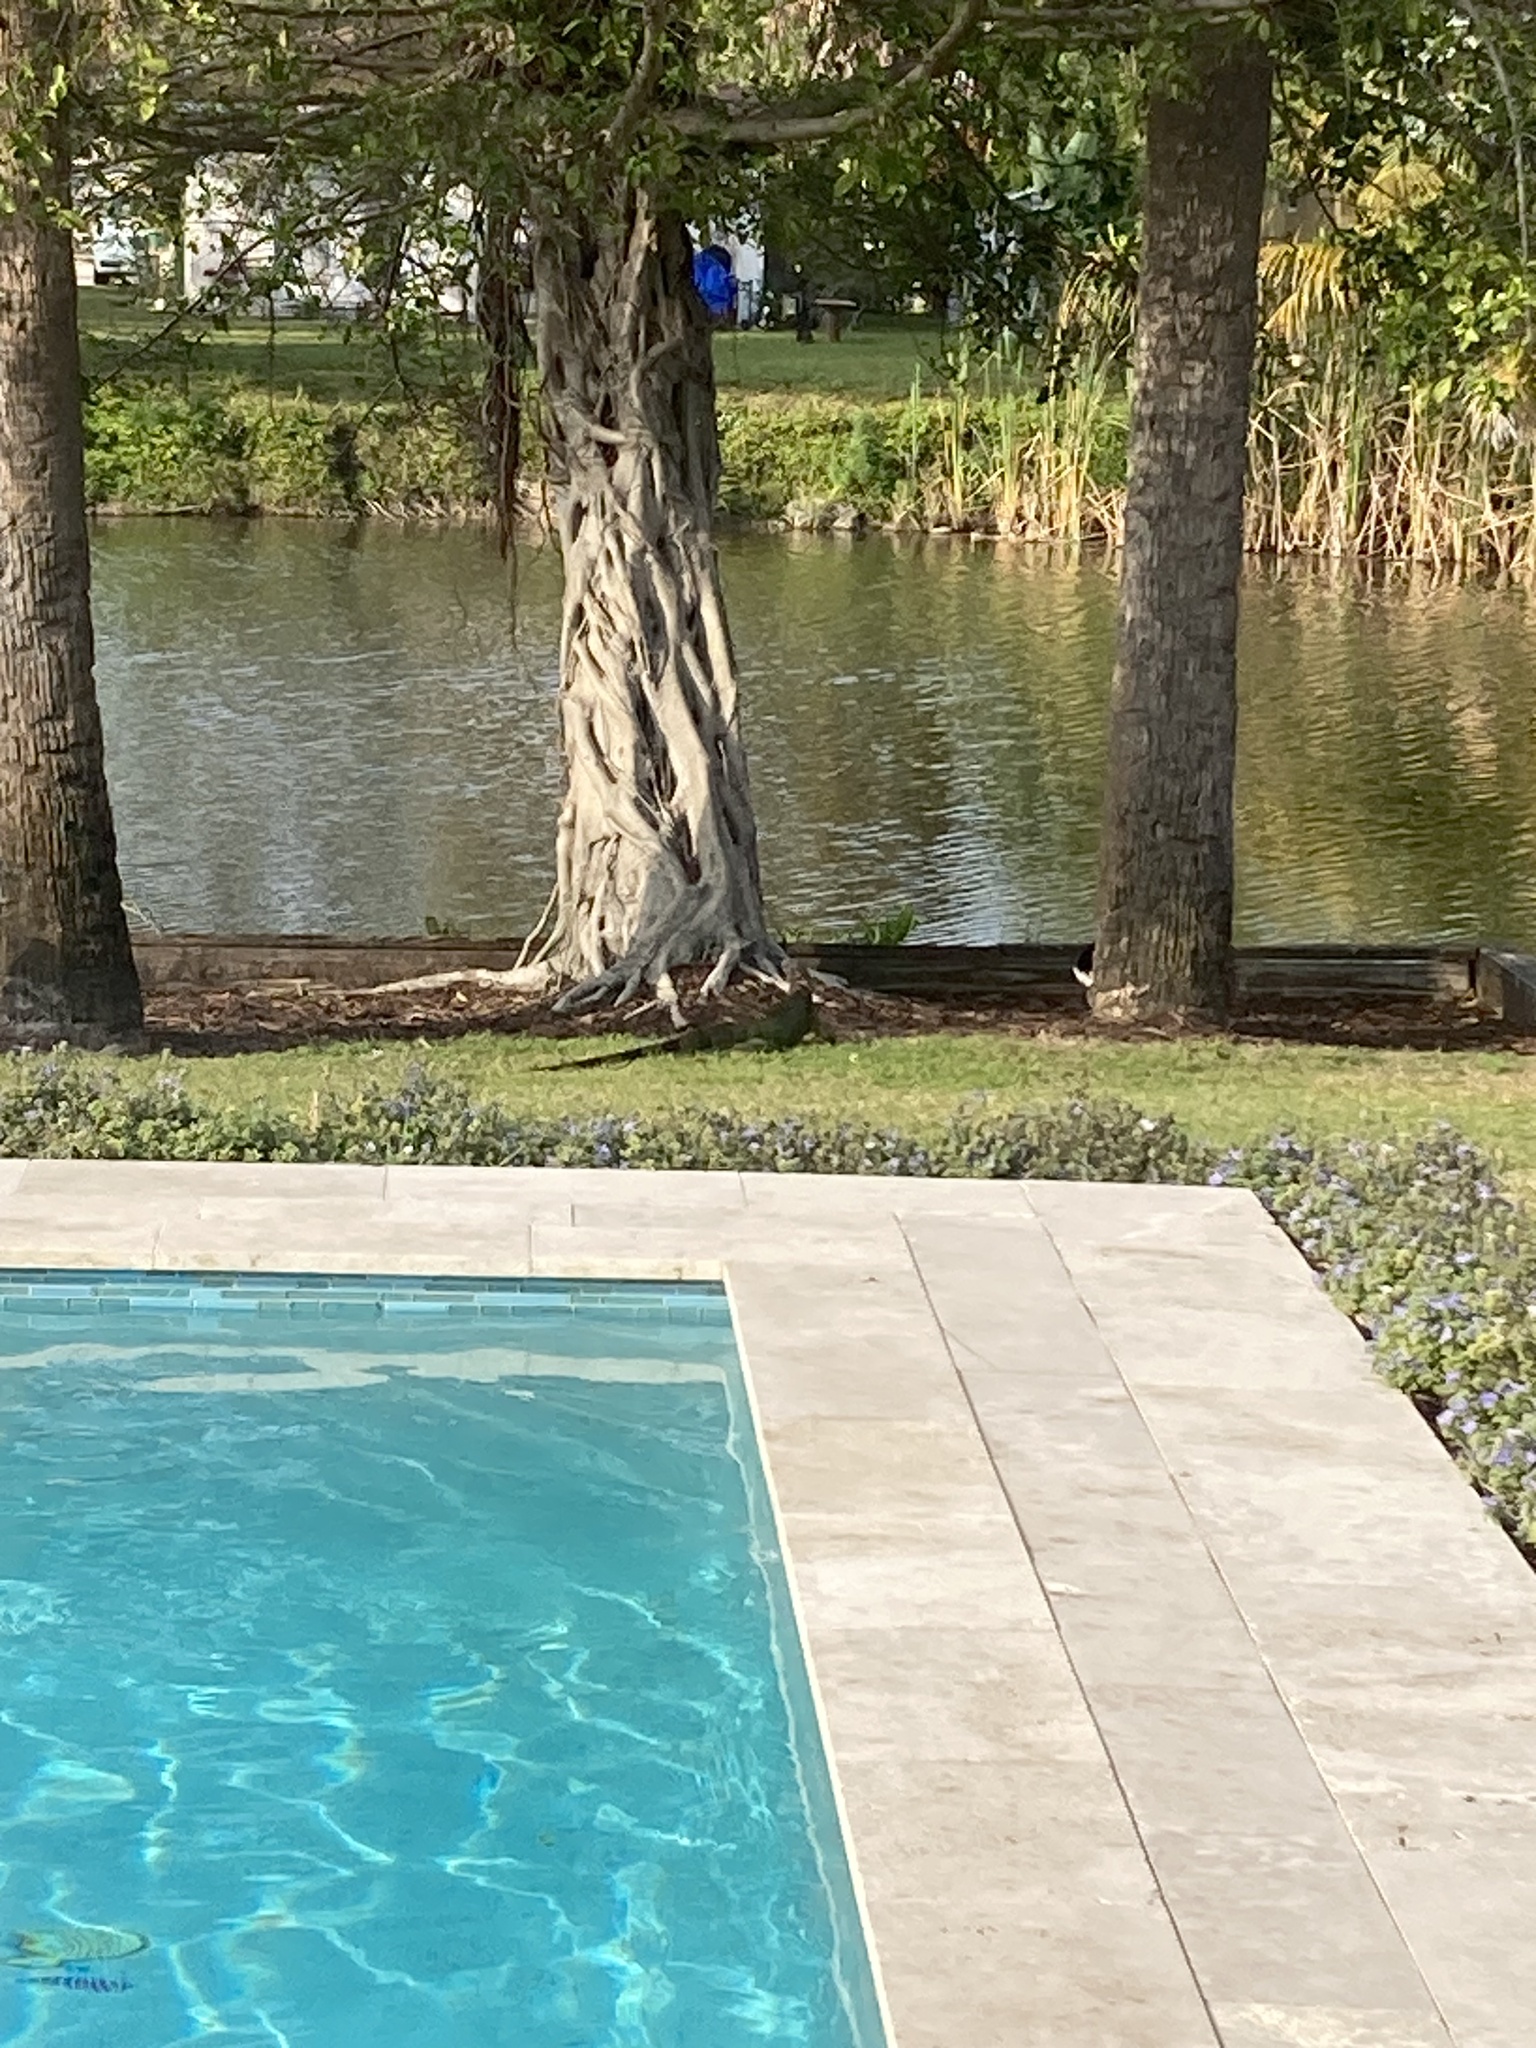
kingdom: Animalia
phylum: Chordata
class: Squamata
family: Iguanidae
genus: Iguana
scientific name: Iguana iguana
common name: Green iguana
